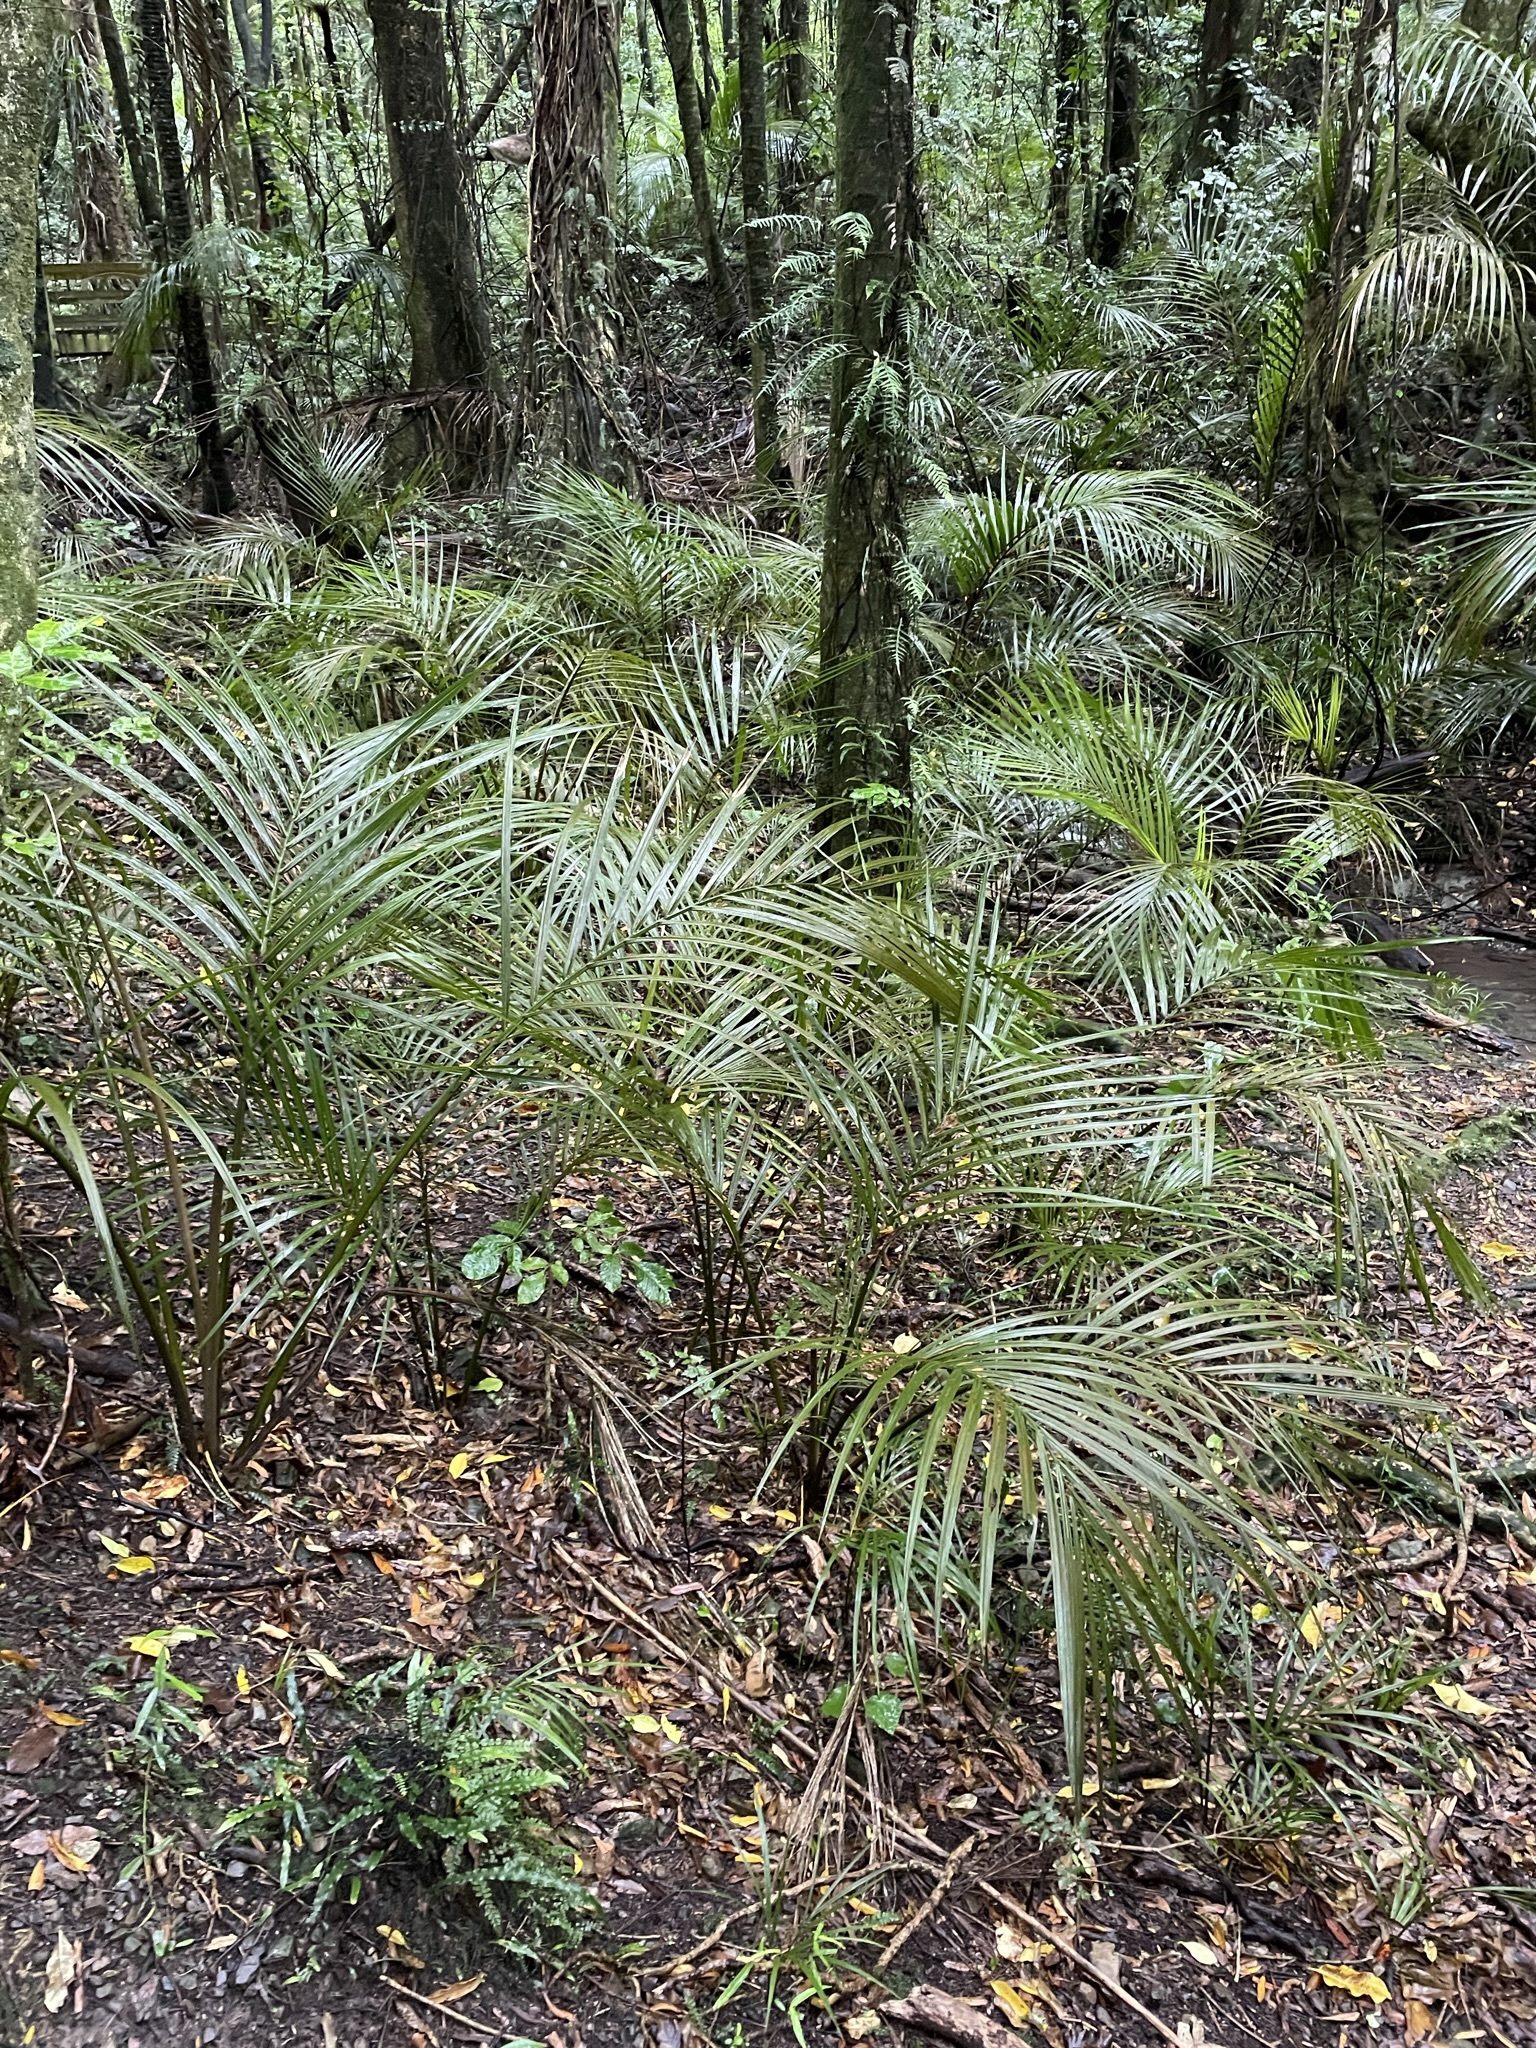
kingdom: Plantae
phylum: Tracheophyta
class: Liliopsida
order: Arecales
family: Arecaceae
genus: Rhopalostylis
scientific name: Rhopalostylis sapida
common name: Feather-duster palm
